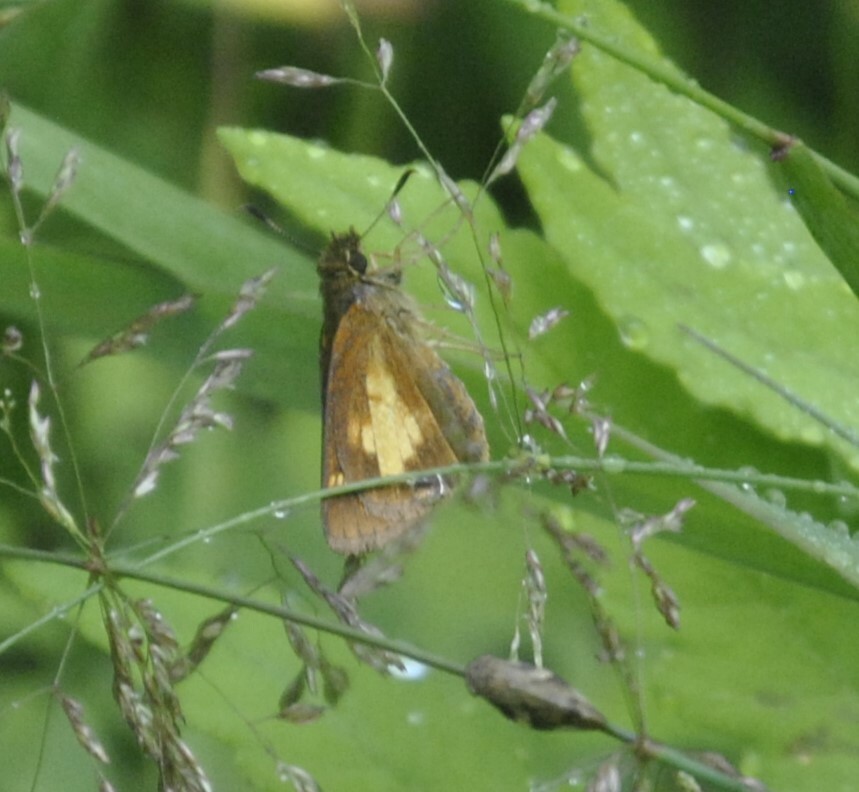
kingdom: Animalia
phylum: Arthropoda
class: Insecta
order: Lepidoptera
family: Hesperiidae
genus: Poanes
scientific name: Poanes massasoit
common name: Mulberrywing
